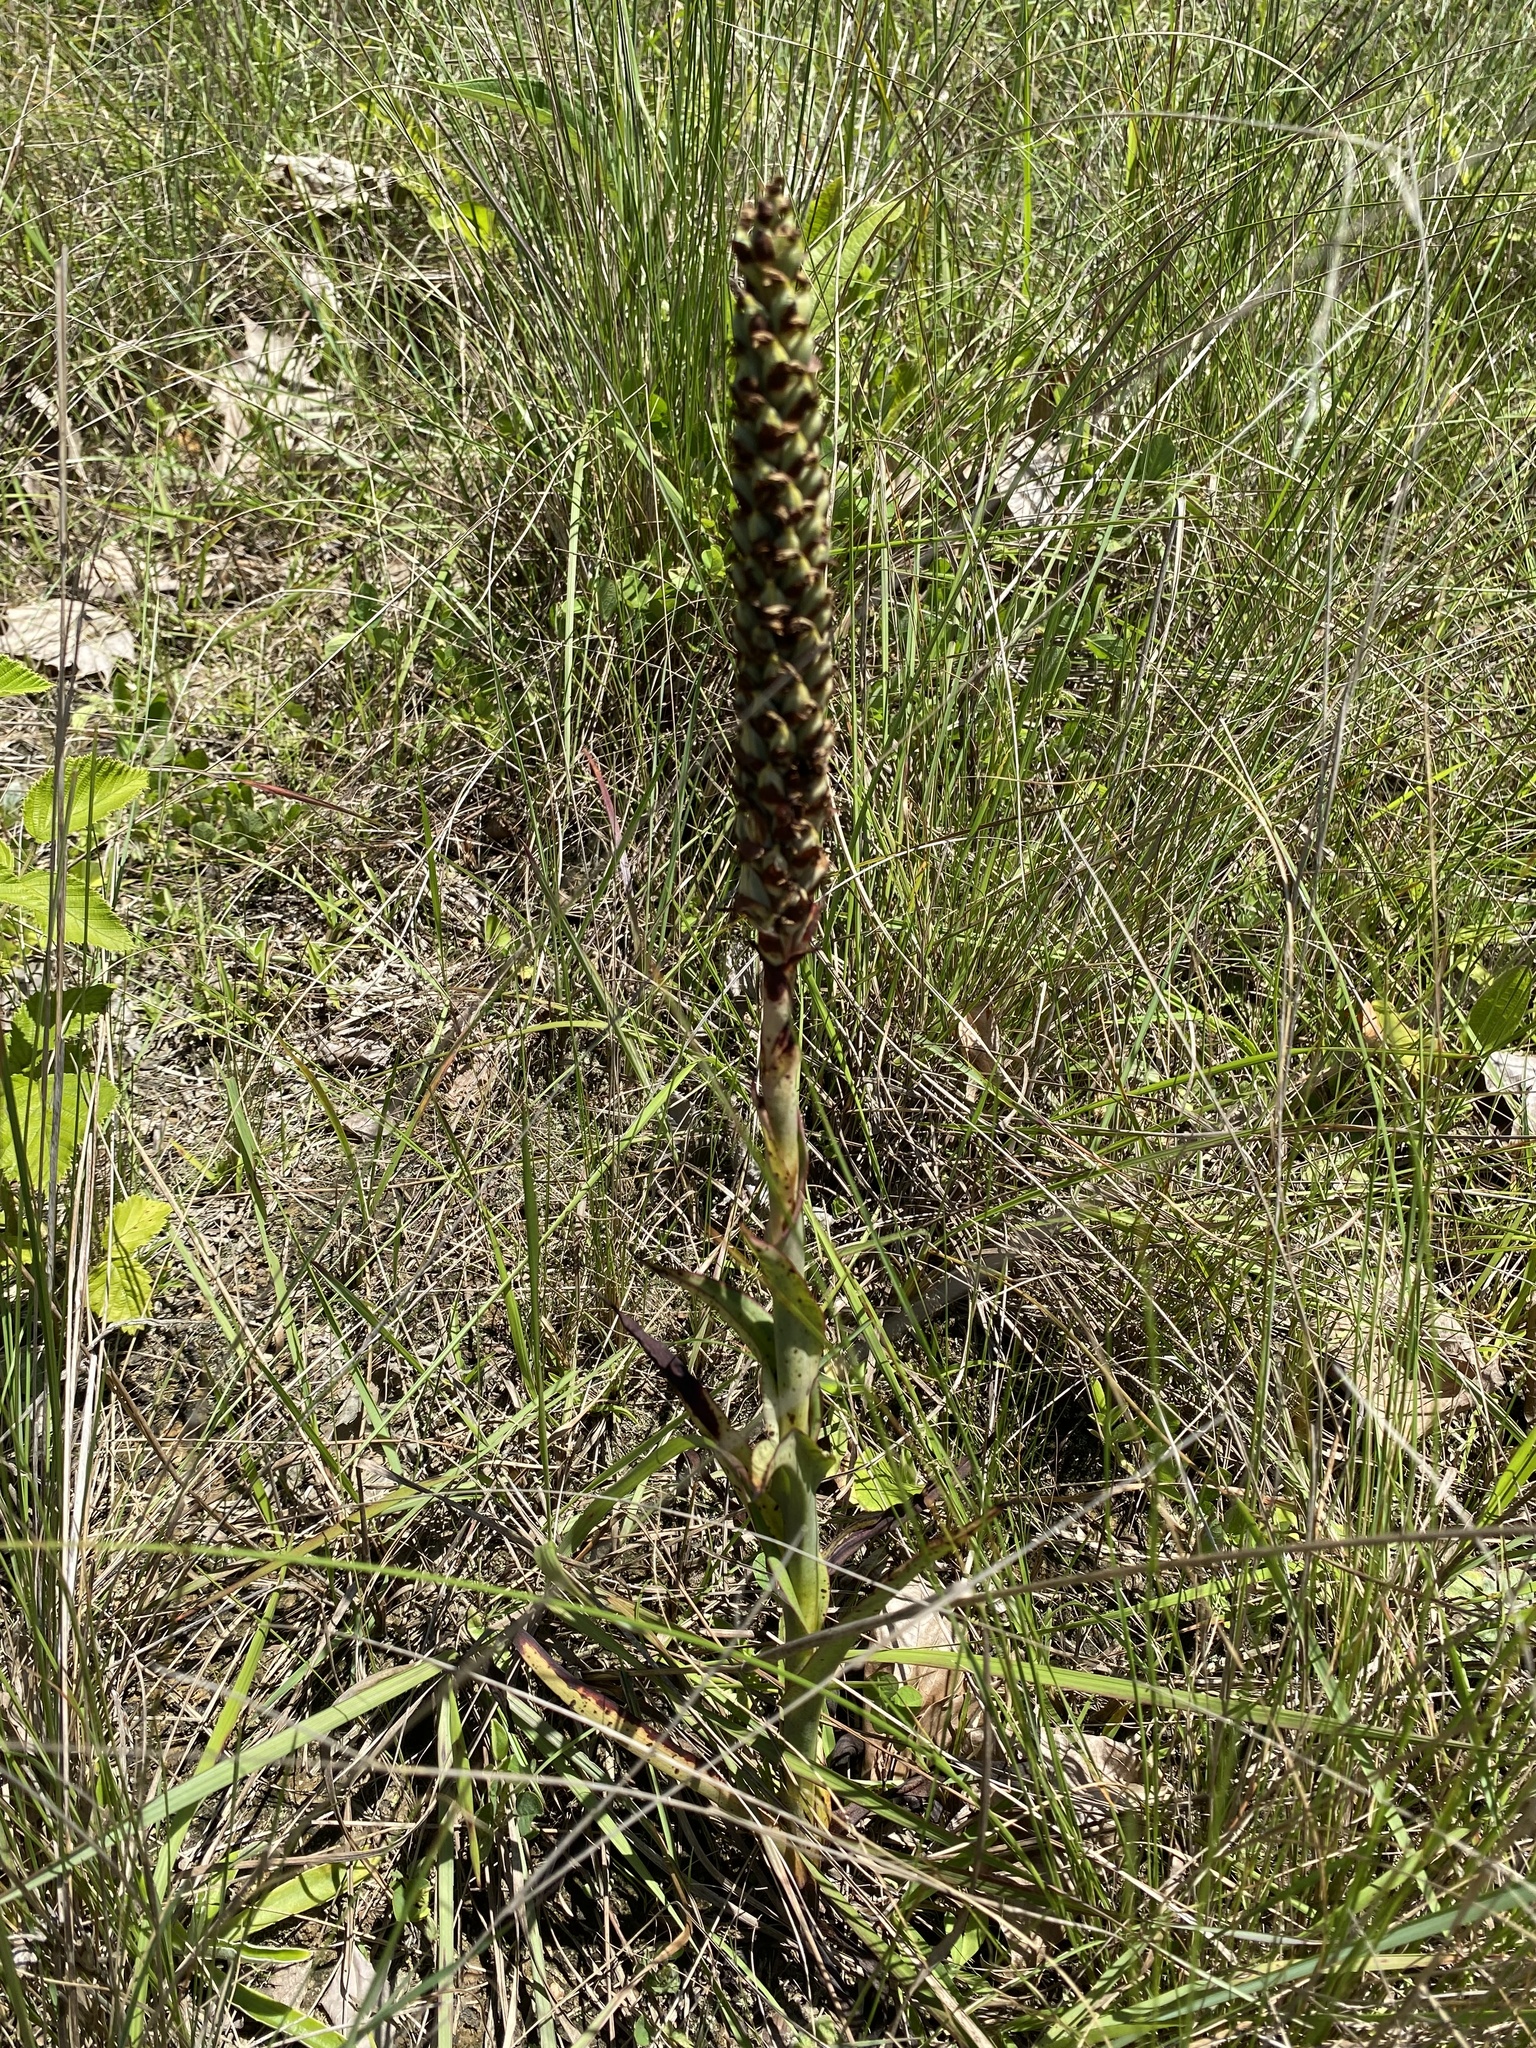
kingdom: Plantae
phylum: Tracheophyta
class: Liliopsida
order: Asparagales
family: Orchidaceae
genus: Disa
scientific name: Disa woodii
